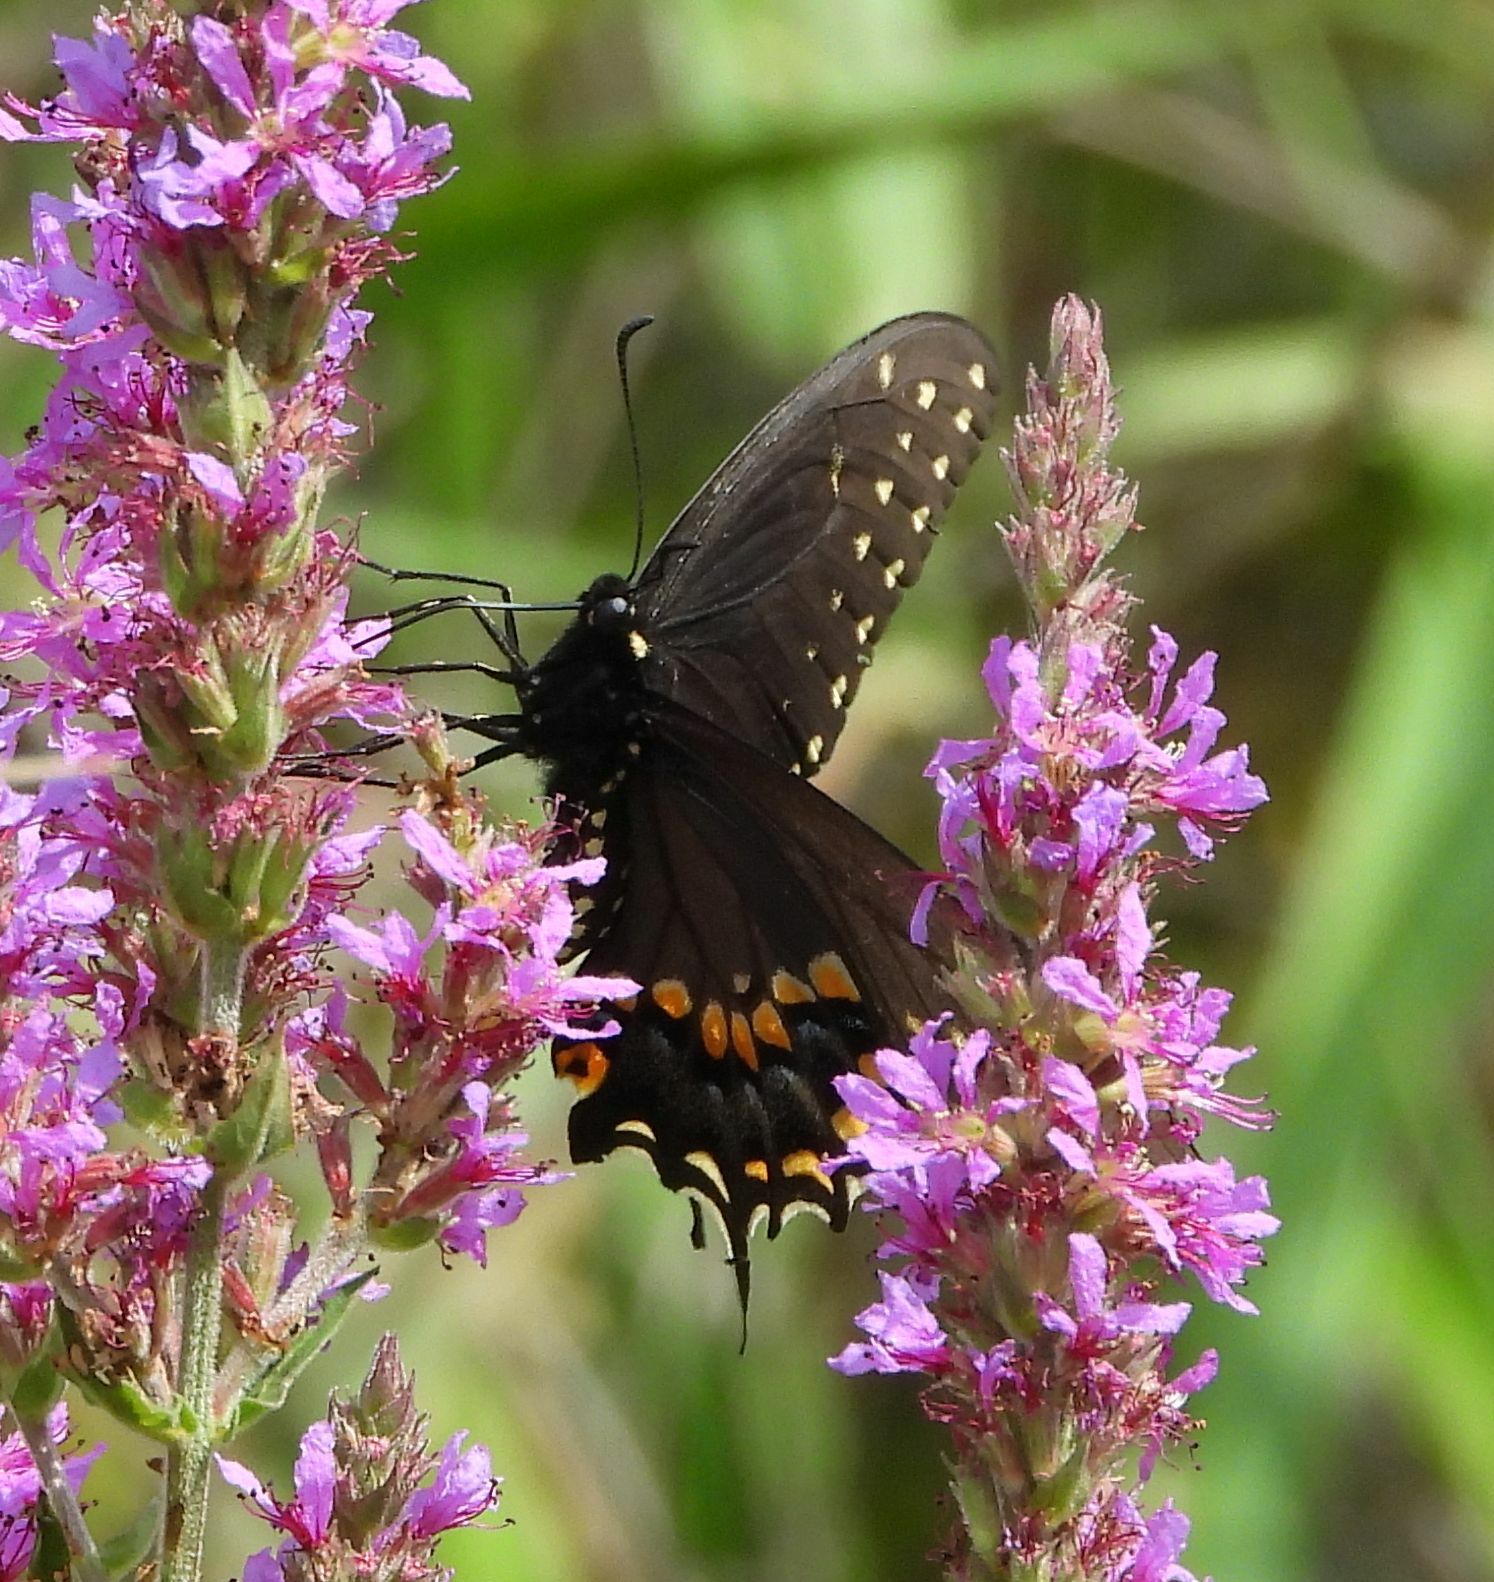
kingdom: Animalia
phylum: Arthropoda
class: Insecta
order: Lepidoptera
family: Papilionidae
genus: Papilio
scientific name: Papilio polyxenes
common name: Black swallowtail
